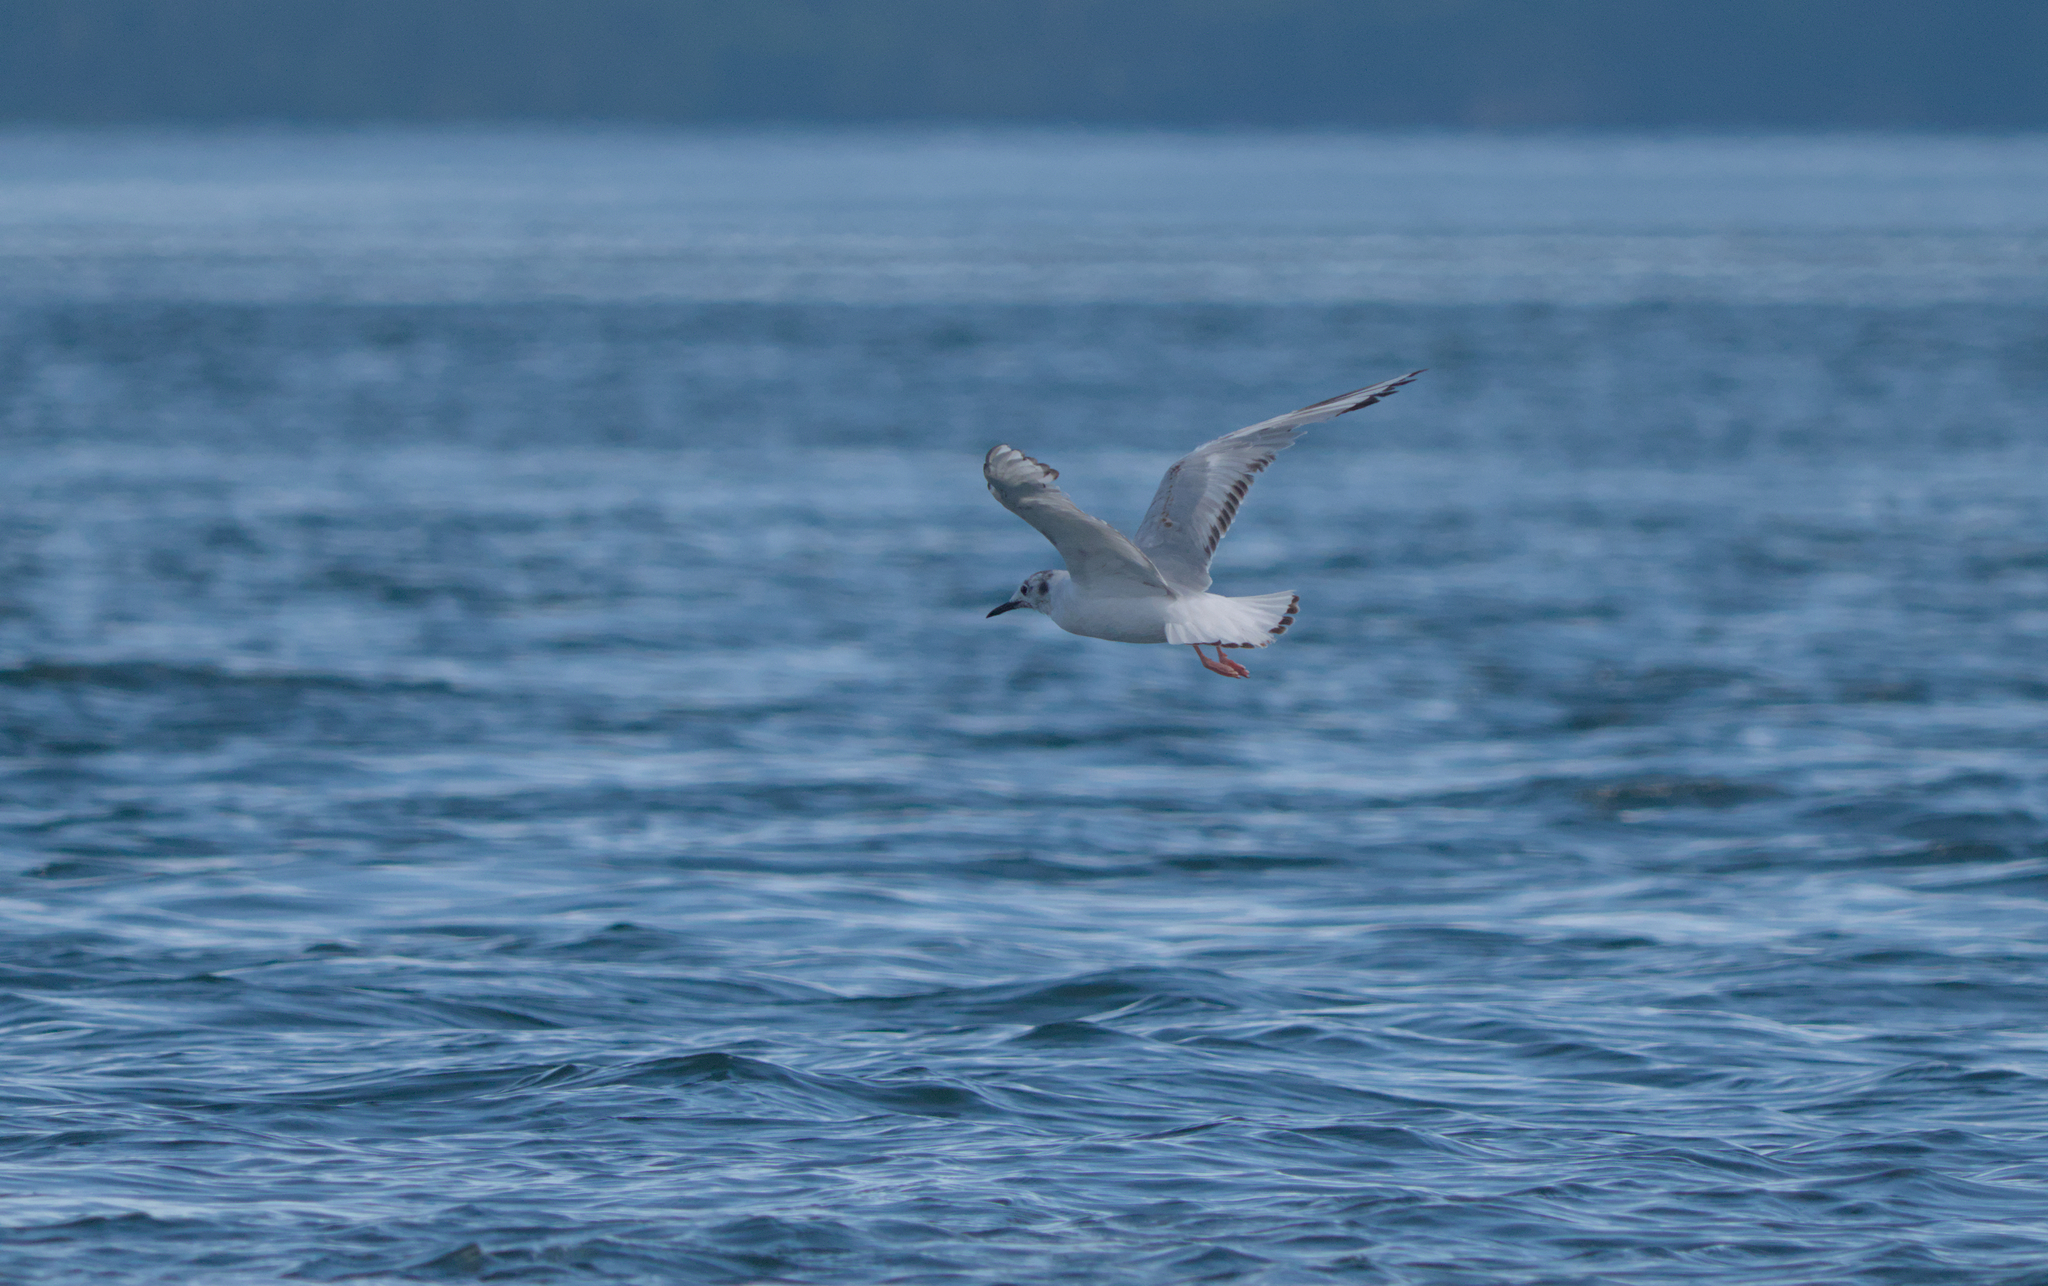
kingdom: Animalia
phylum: Chordata
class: Aves
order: Charadriiformes
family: Laridae
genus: Chroicocephalus
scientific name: Chroicocephalus philadelphia
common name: Bonaparte's gull
